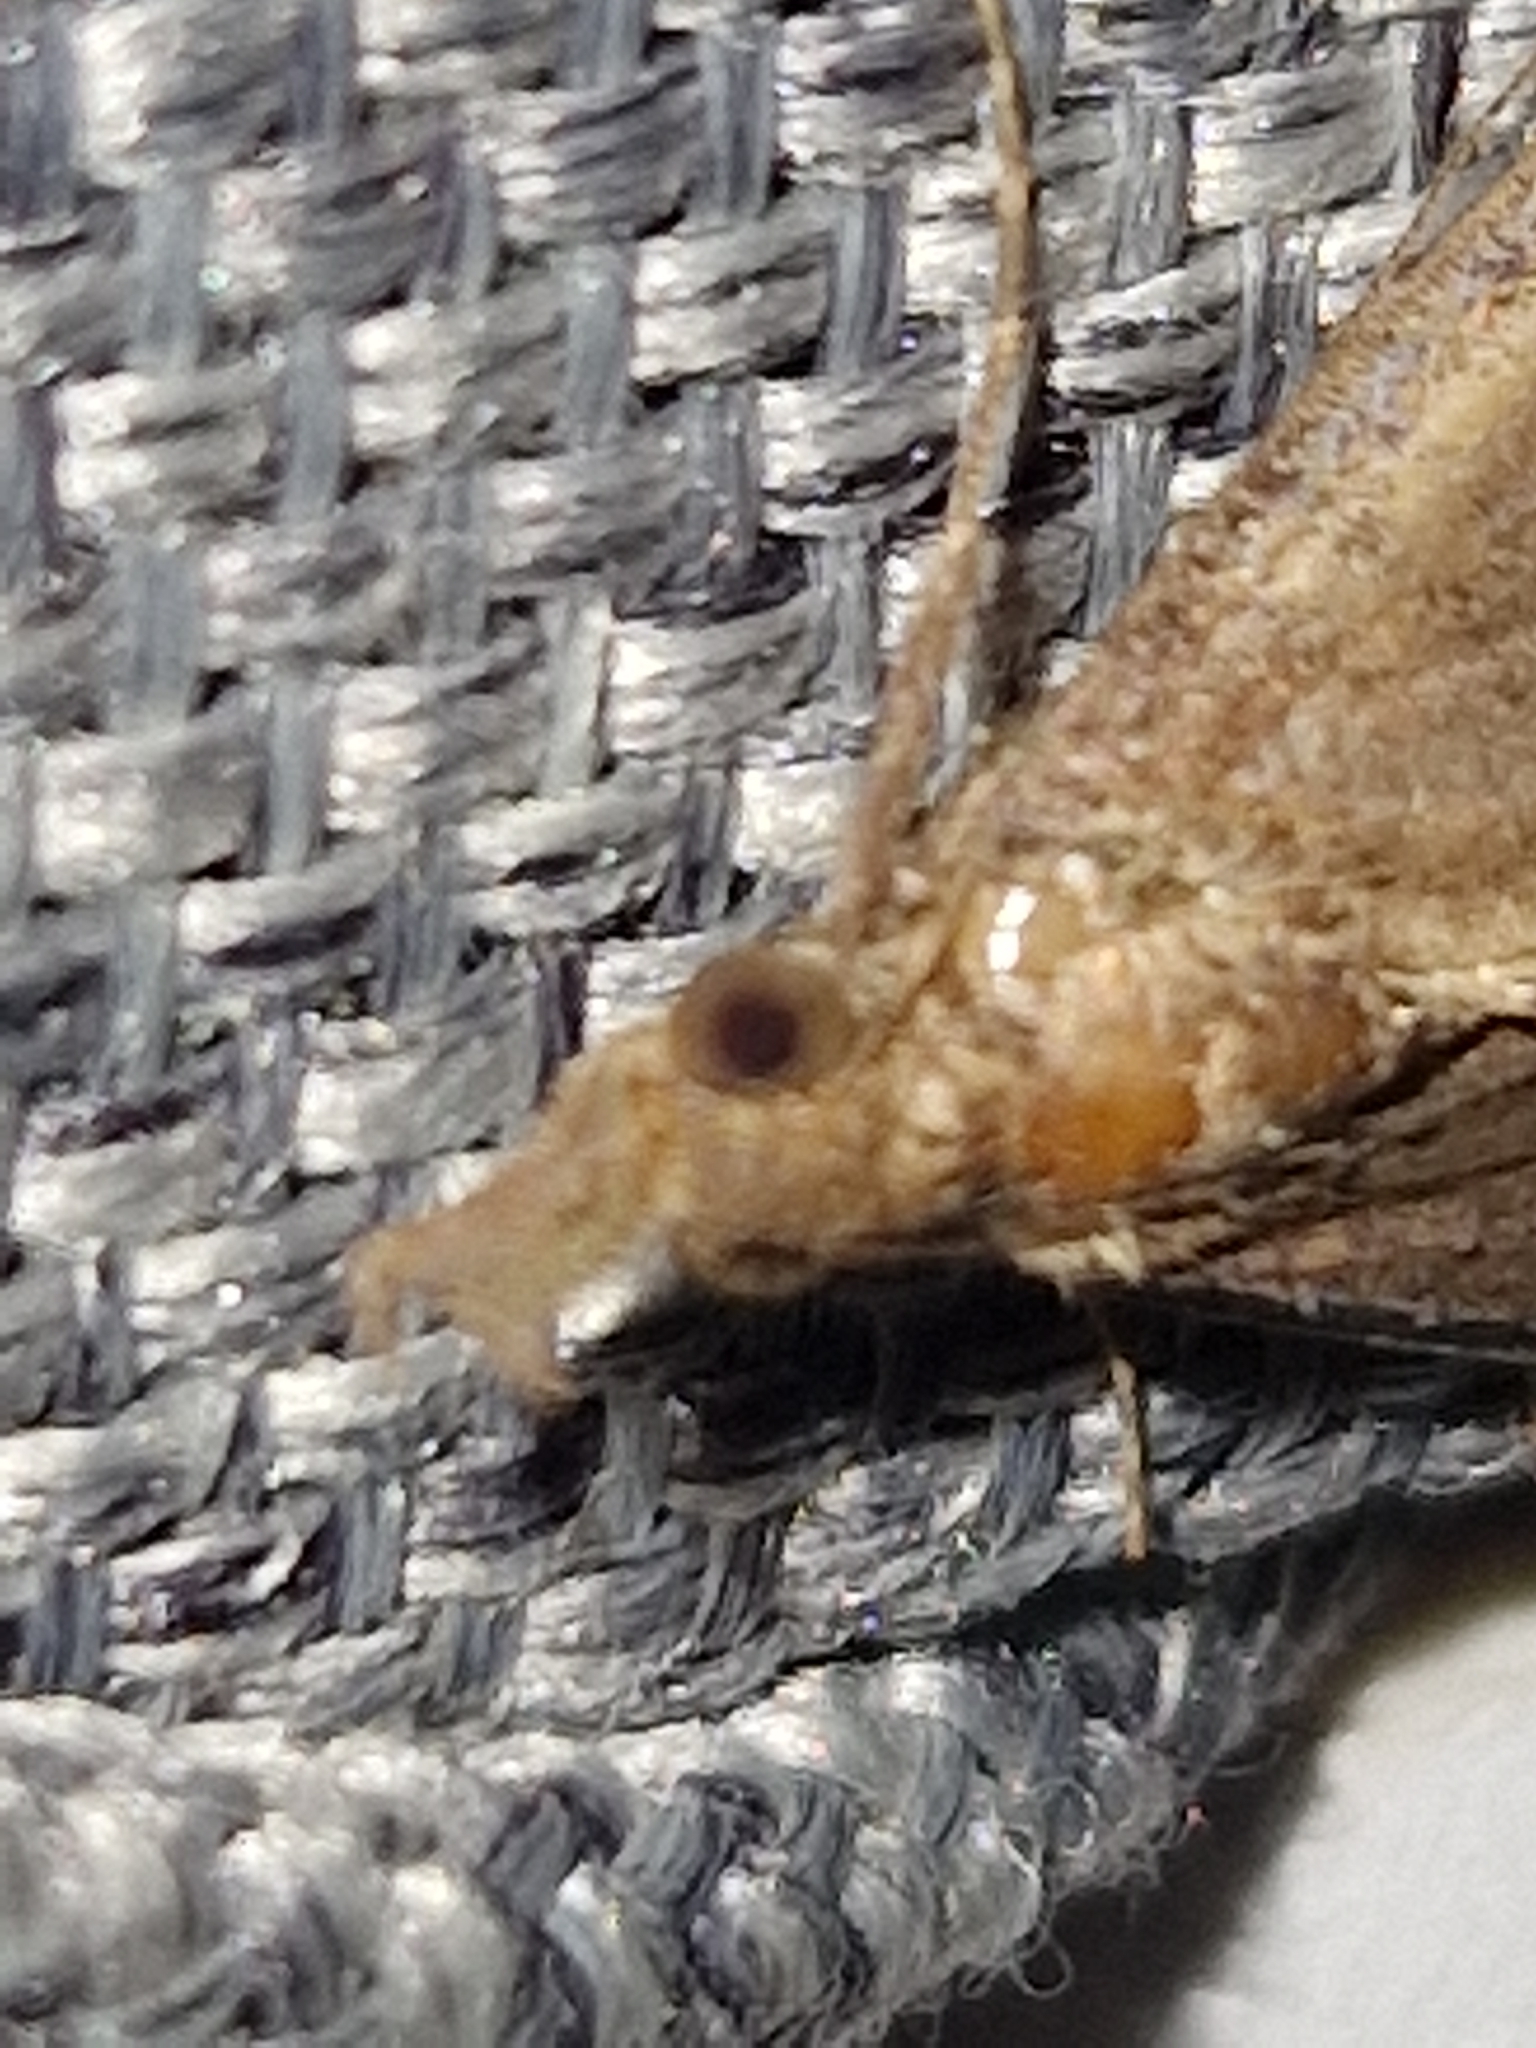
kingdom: Animalia
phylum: Arthropoda
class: Insecta
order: Lepidoptera
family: Erebidae
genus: Hypena
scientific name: Hypena proboscidalis
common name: Snout
